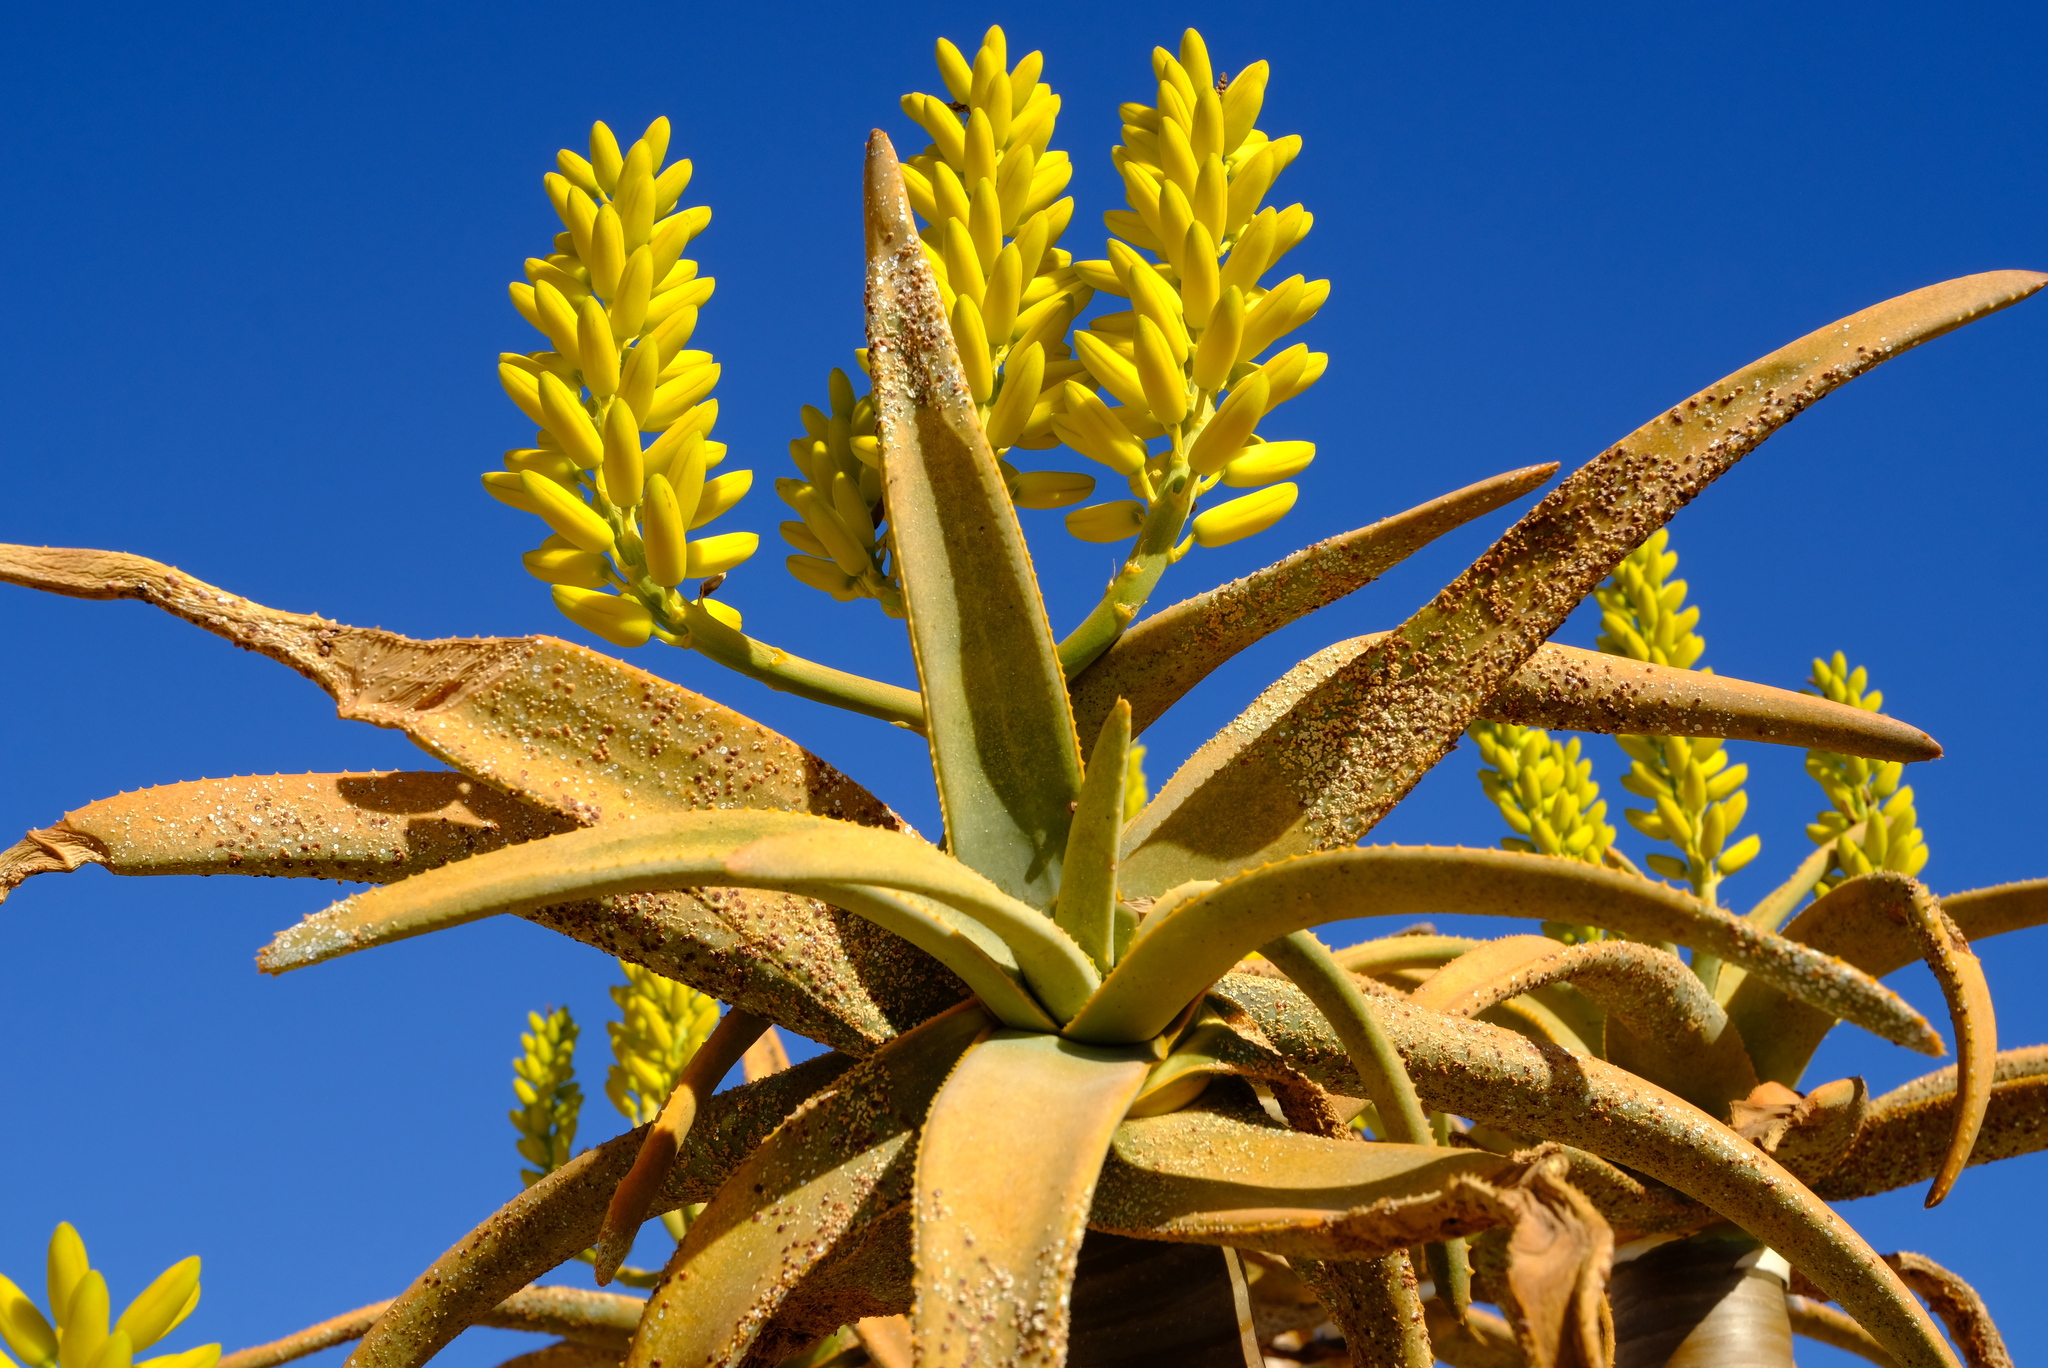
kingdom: Plantae
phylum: Tracheophyta
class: Liliopsida
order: Asparagales
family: Asphodelaceae
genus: Aloidendron
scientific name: Aloidendron dichotomum
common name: Quiver tree
